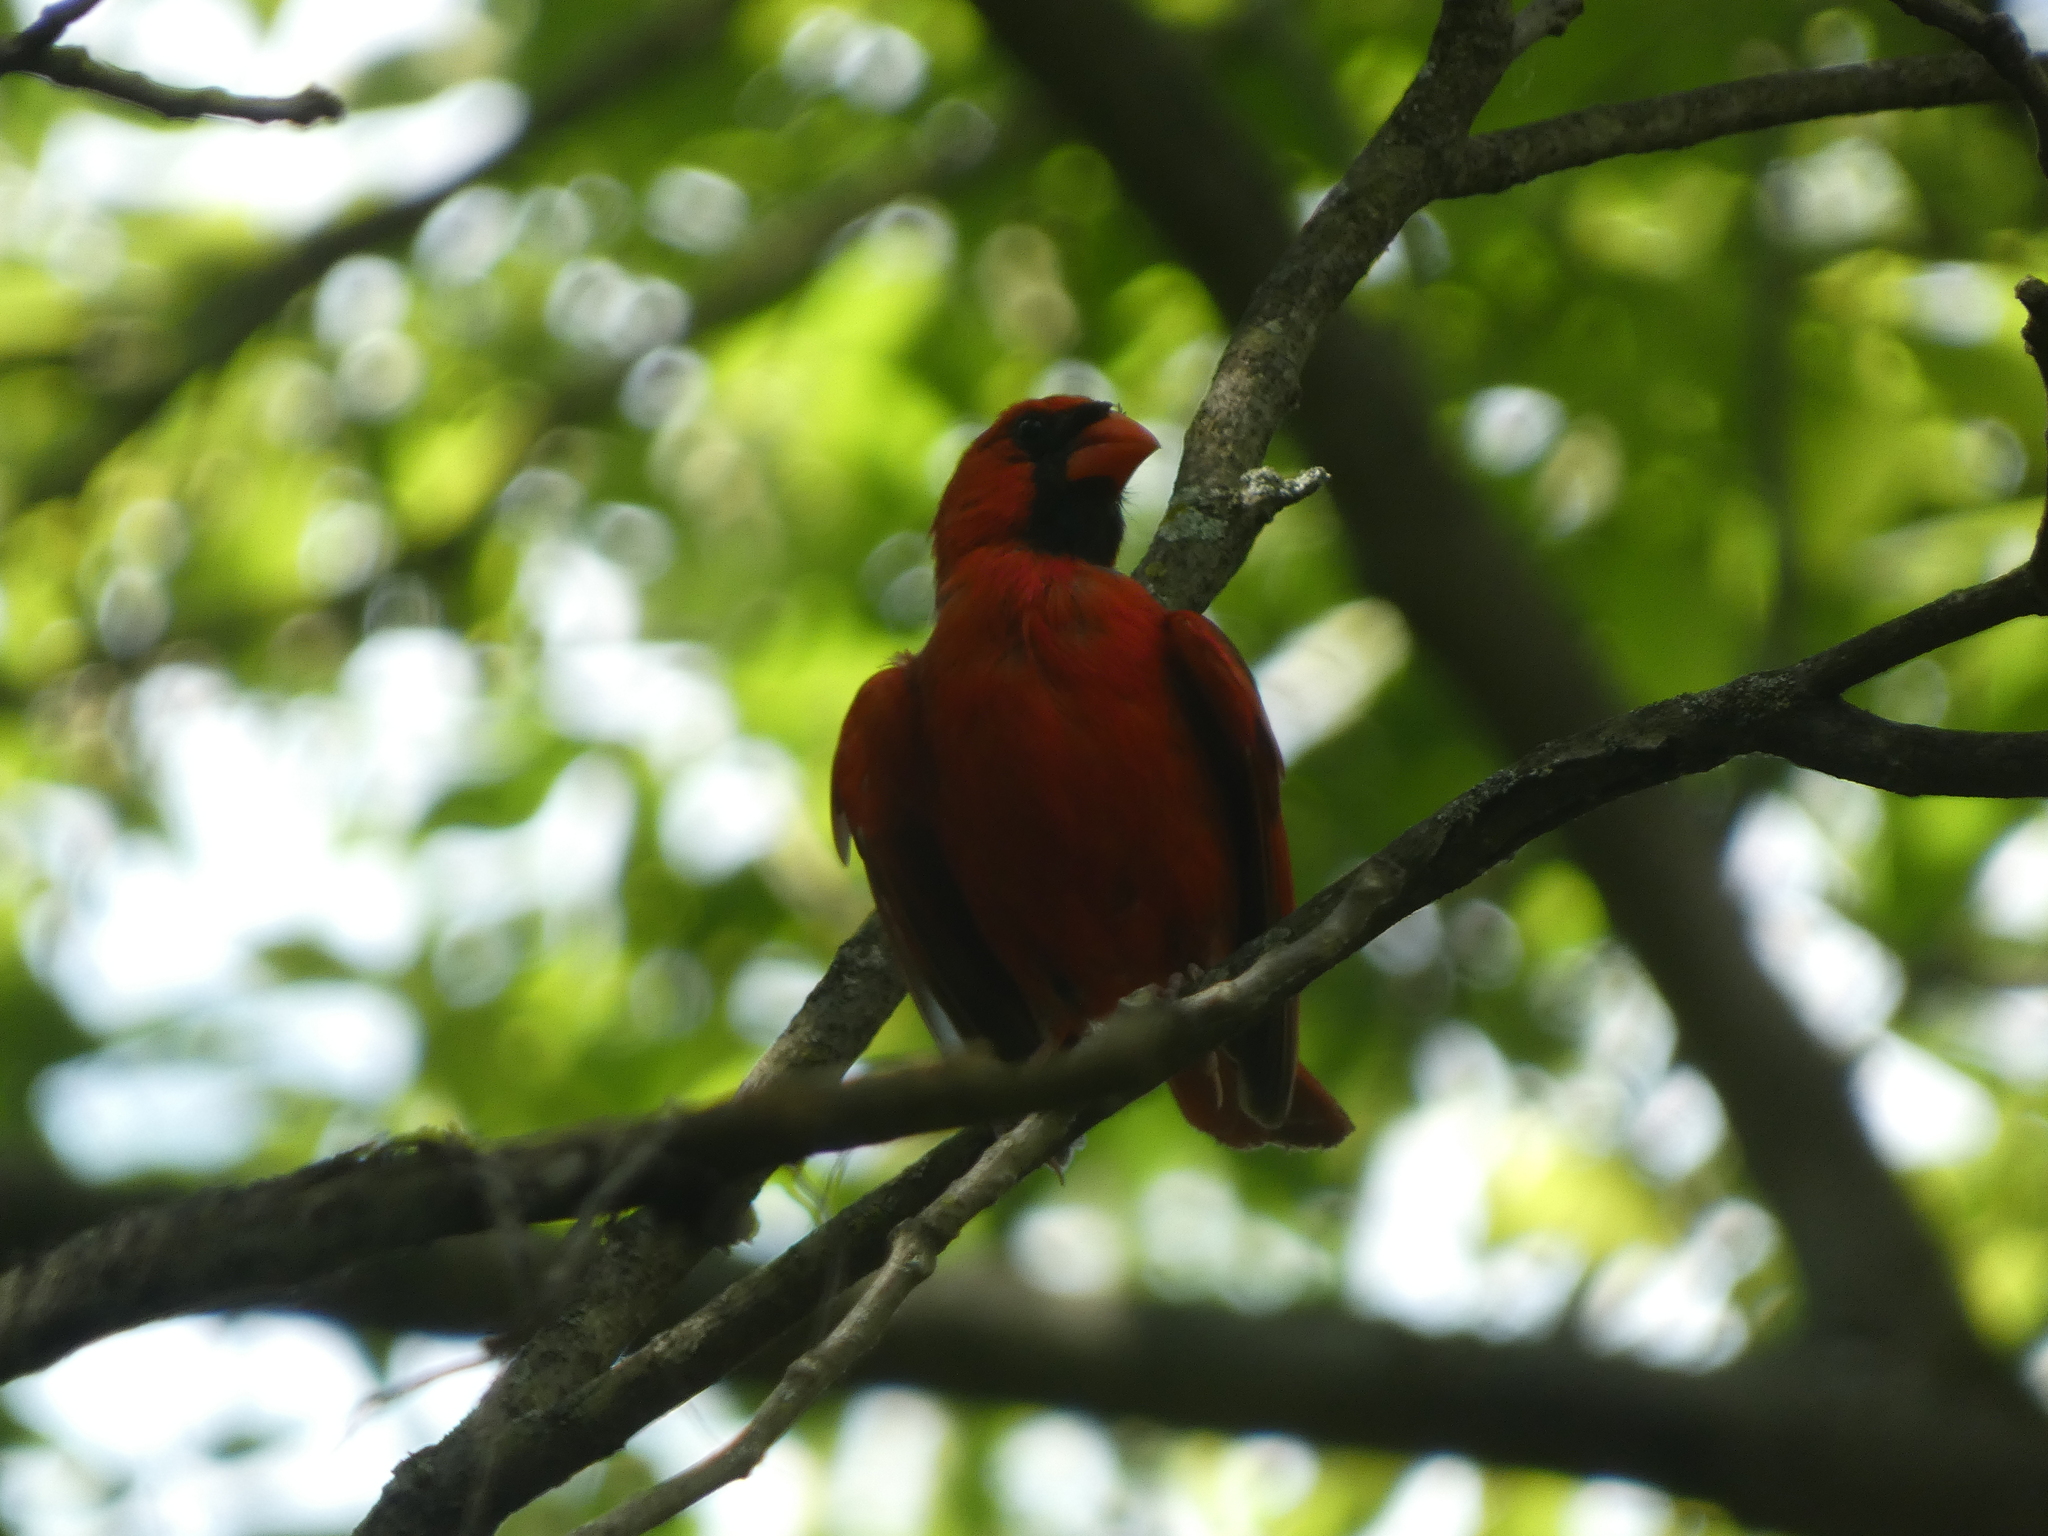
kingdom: Animalia
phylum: Chordata
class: Aves
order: Passeriformes
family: Cardinalidae
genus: Cardinalis
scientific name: Cardinalis cardinalis
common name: Northern cardinal
